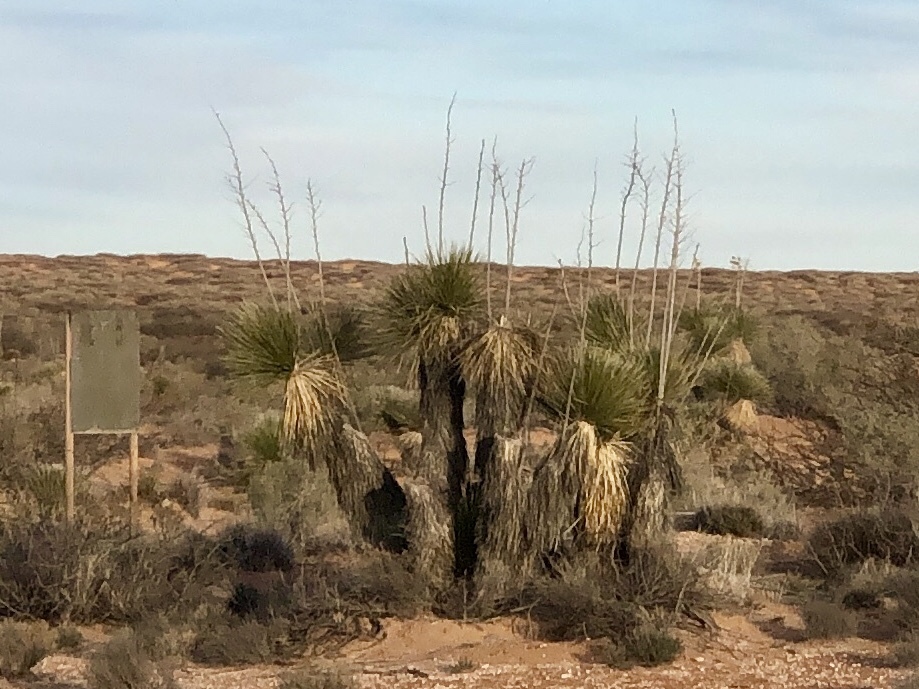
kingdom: Plantae
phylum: Tracheophyta
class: Liliopsida
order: Asparagales
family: Asparagaceae
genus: Yucca
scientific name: Yucca elata
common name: Palmella
